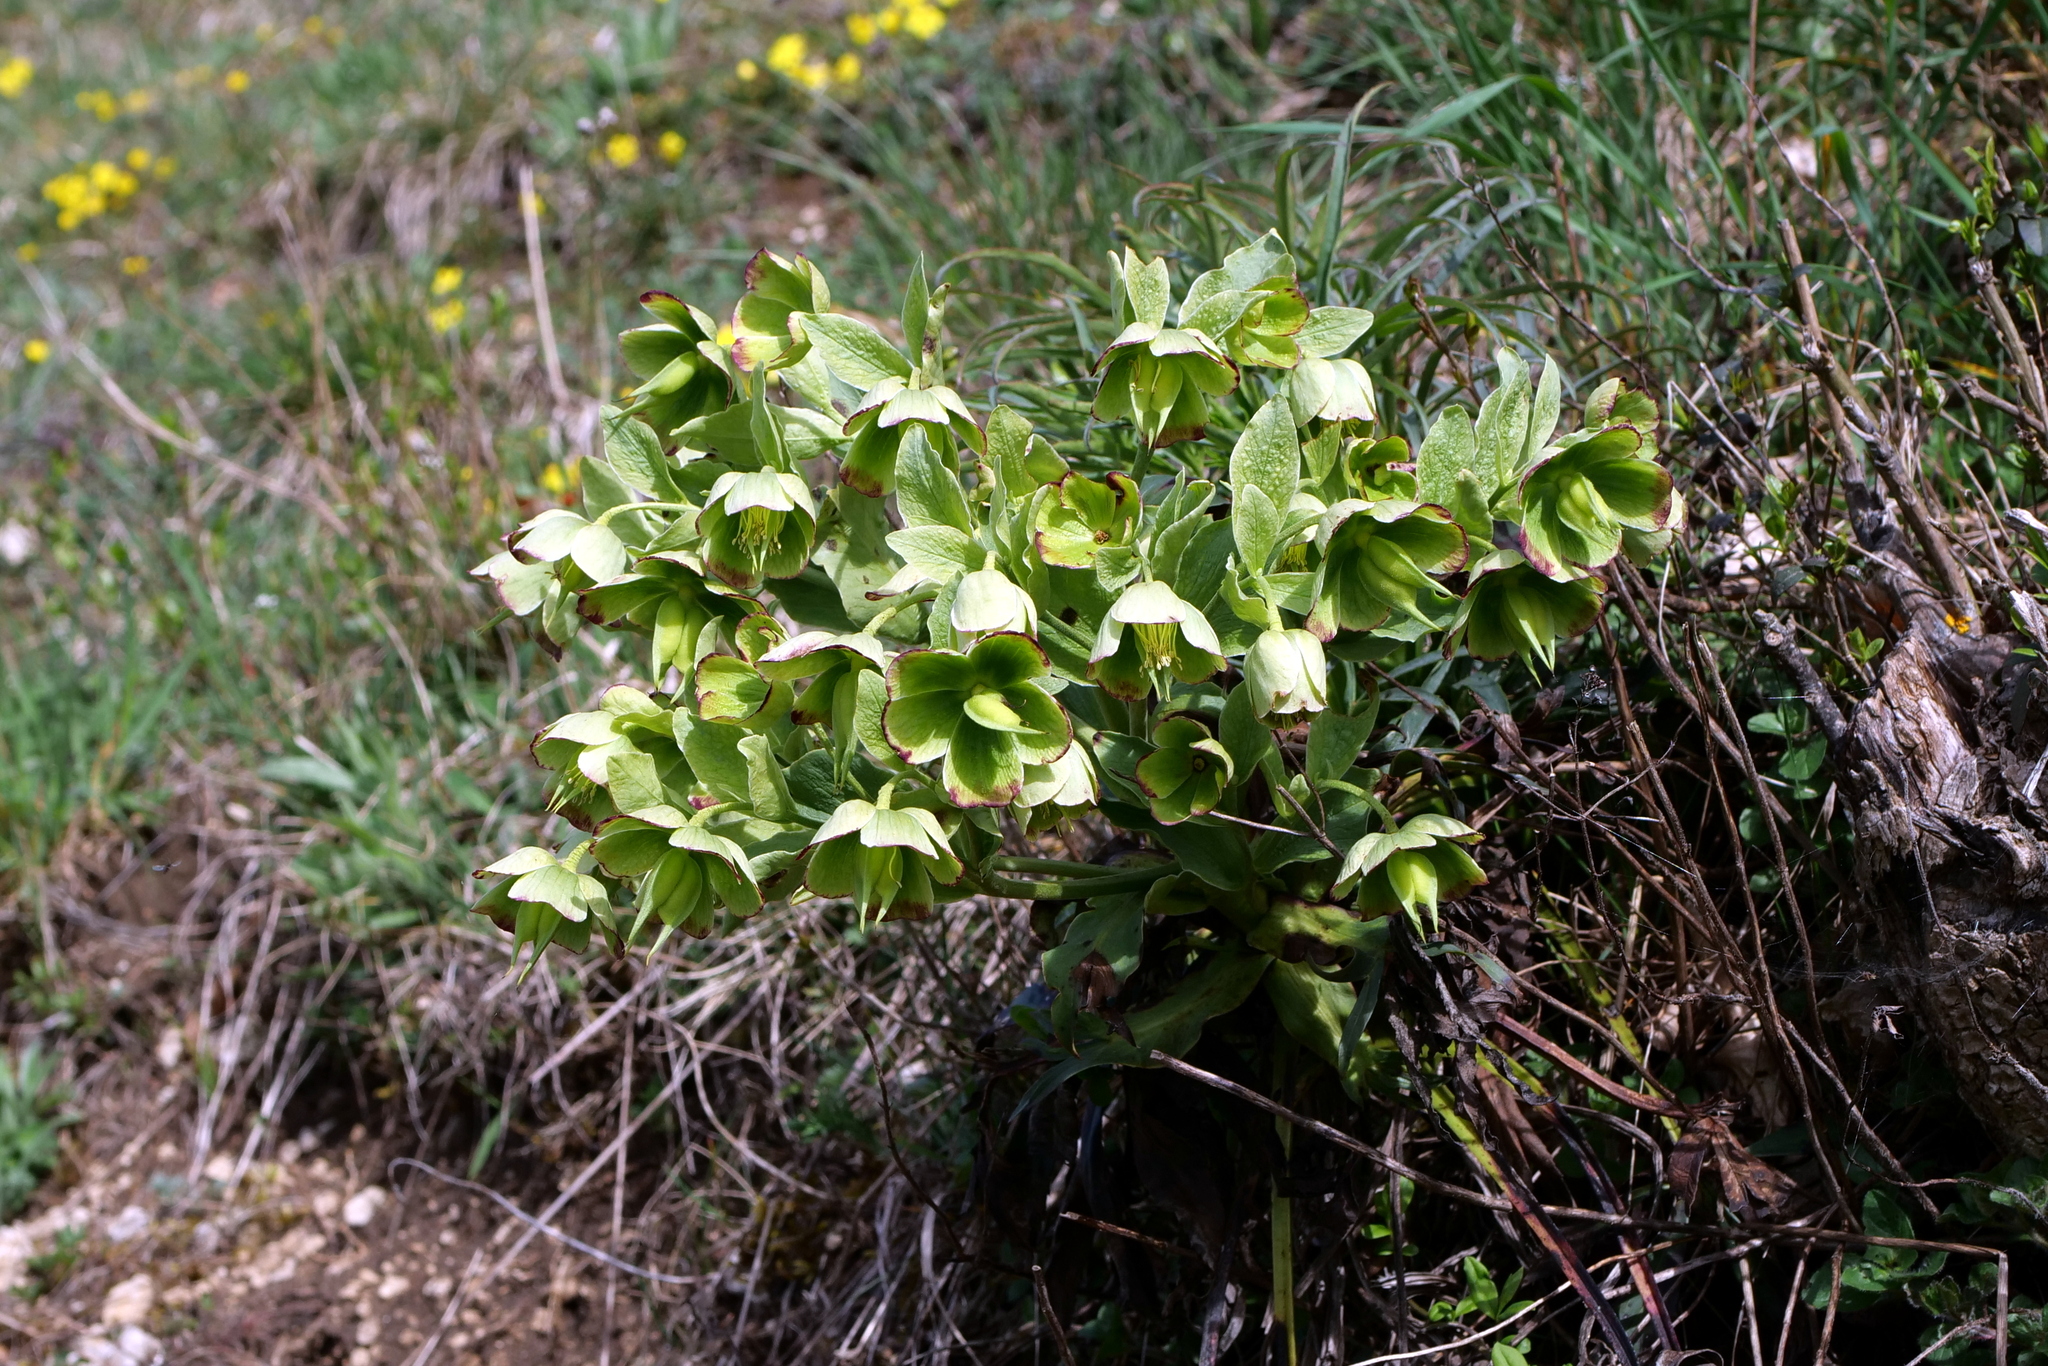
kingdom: Plantae
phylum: Tracheophyta
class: Magnoliopsida
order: Ranunculales
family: Ranunculaceae
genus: Helleborus
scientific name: Helleborus foetidus
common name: Stinking hellebore
